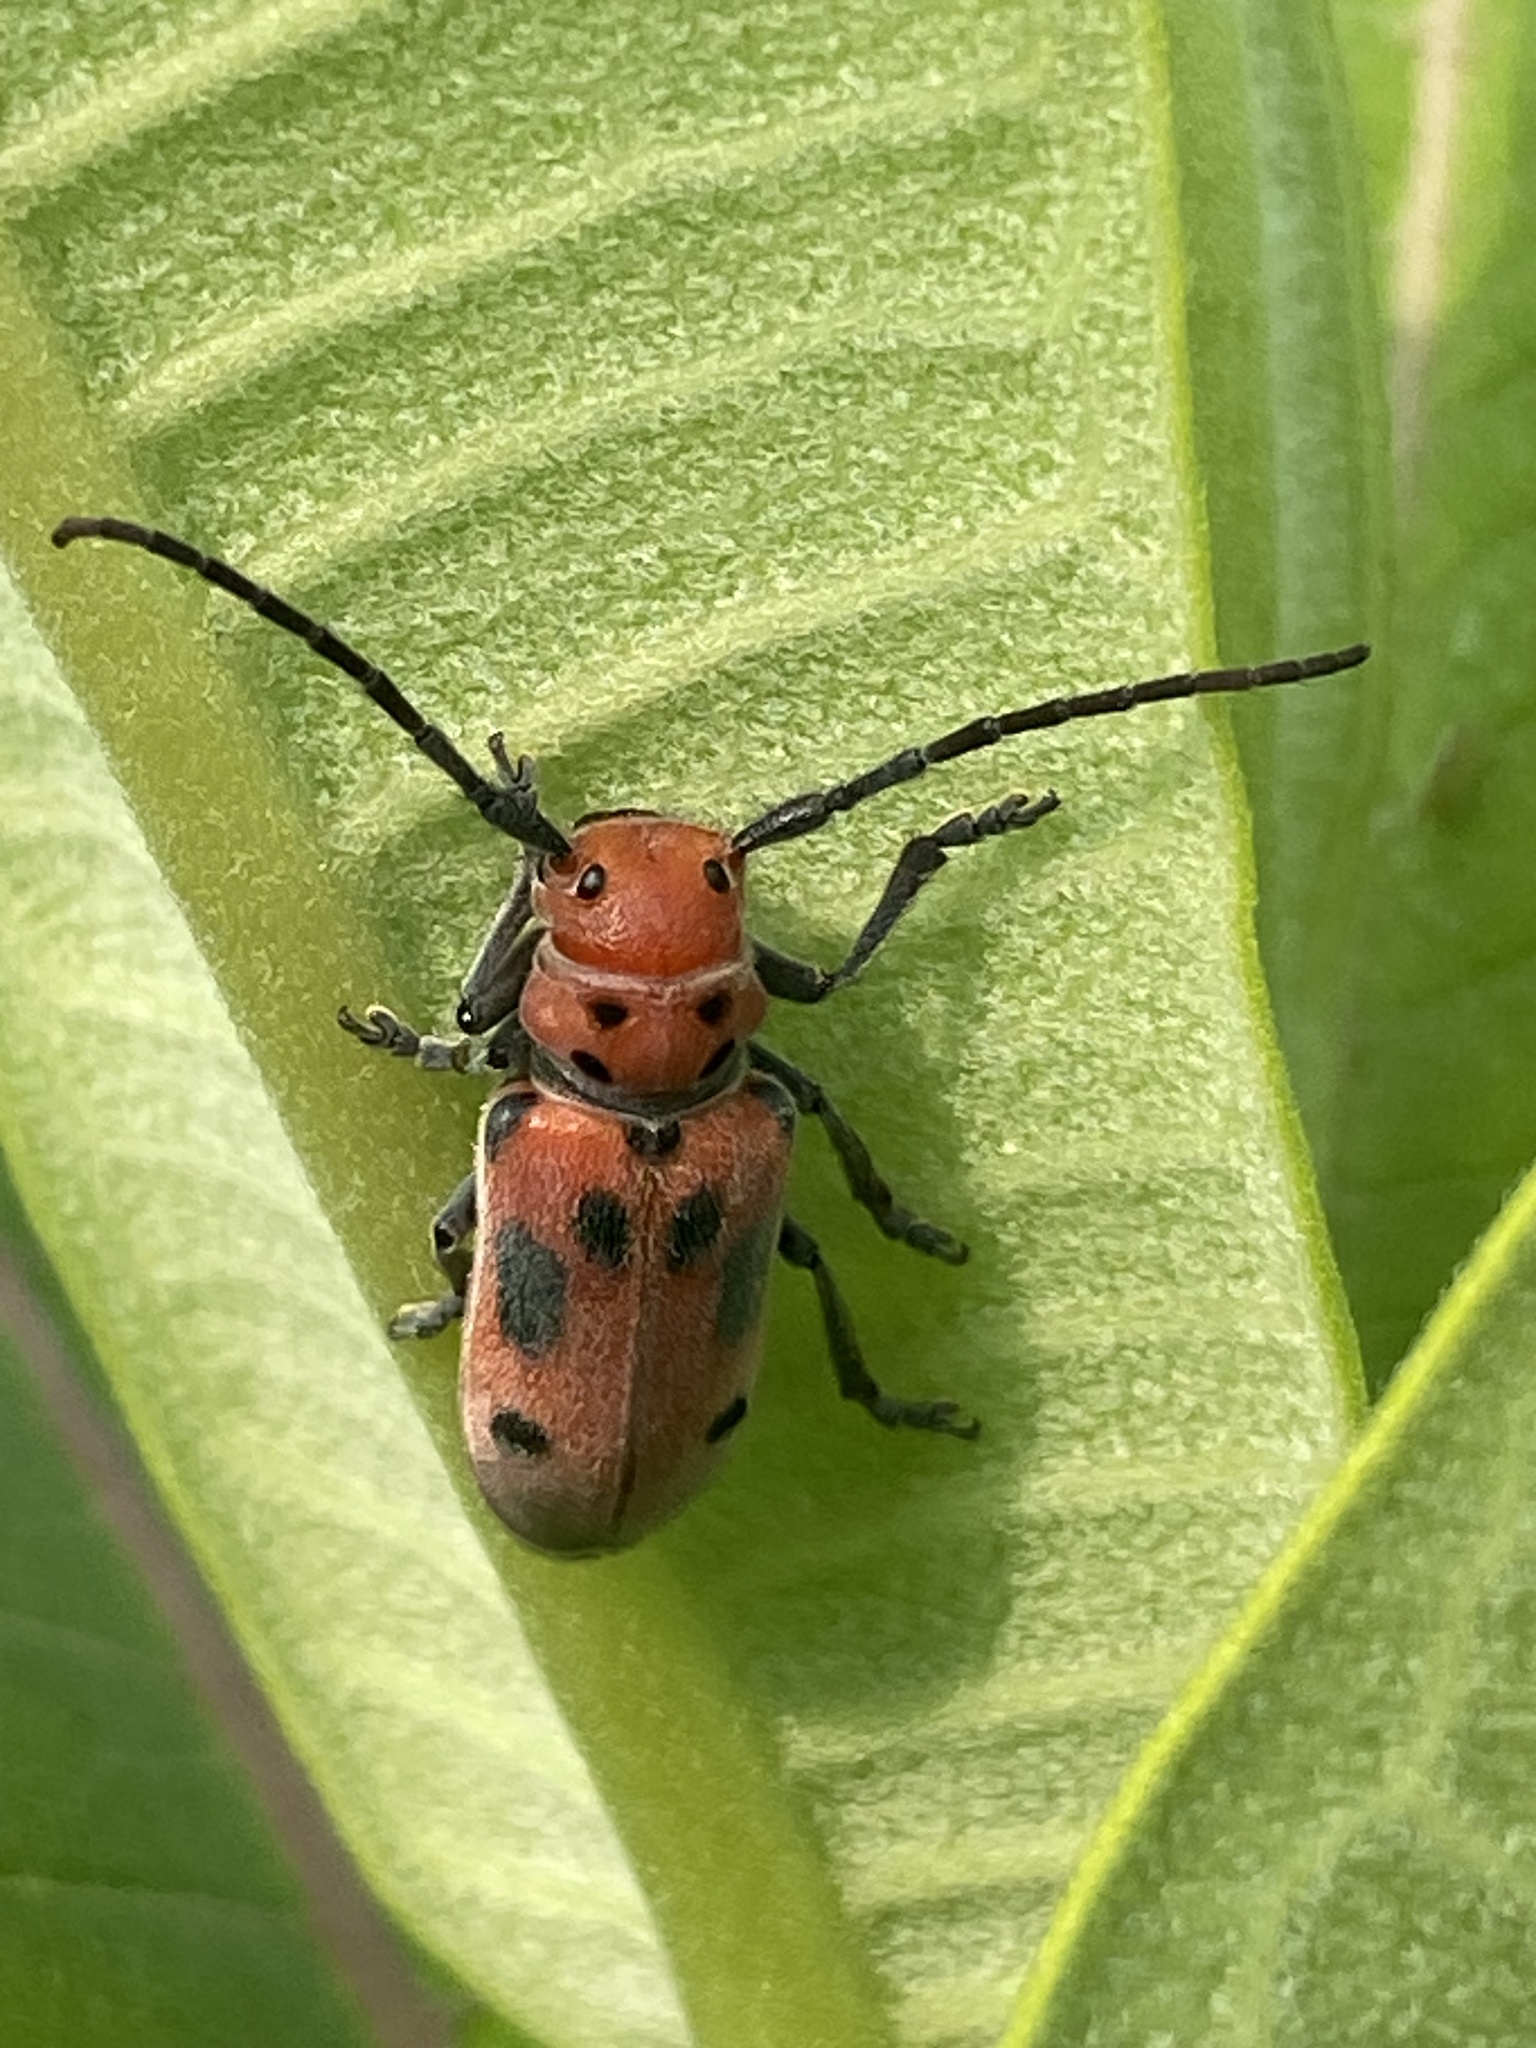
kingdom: Animalia
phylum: Arthropoda
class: Insecta
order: Coleoptera
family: Cerambycidae
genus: Tetraopes
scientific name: Tetraopes tetrophthalmus
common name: Red milkweed beetle
